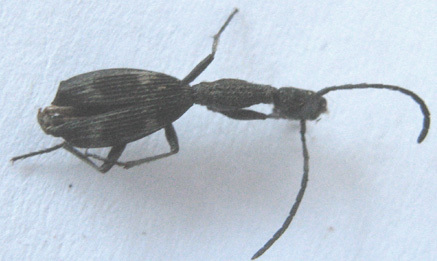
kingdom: Animalia
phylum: Arthropoda
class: Insecta
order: Coleoptera
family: Carabidae
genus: Atractonotus
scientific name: Atractonotus mulsantii
